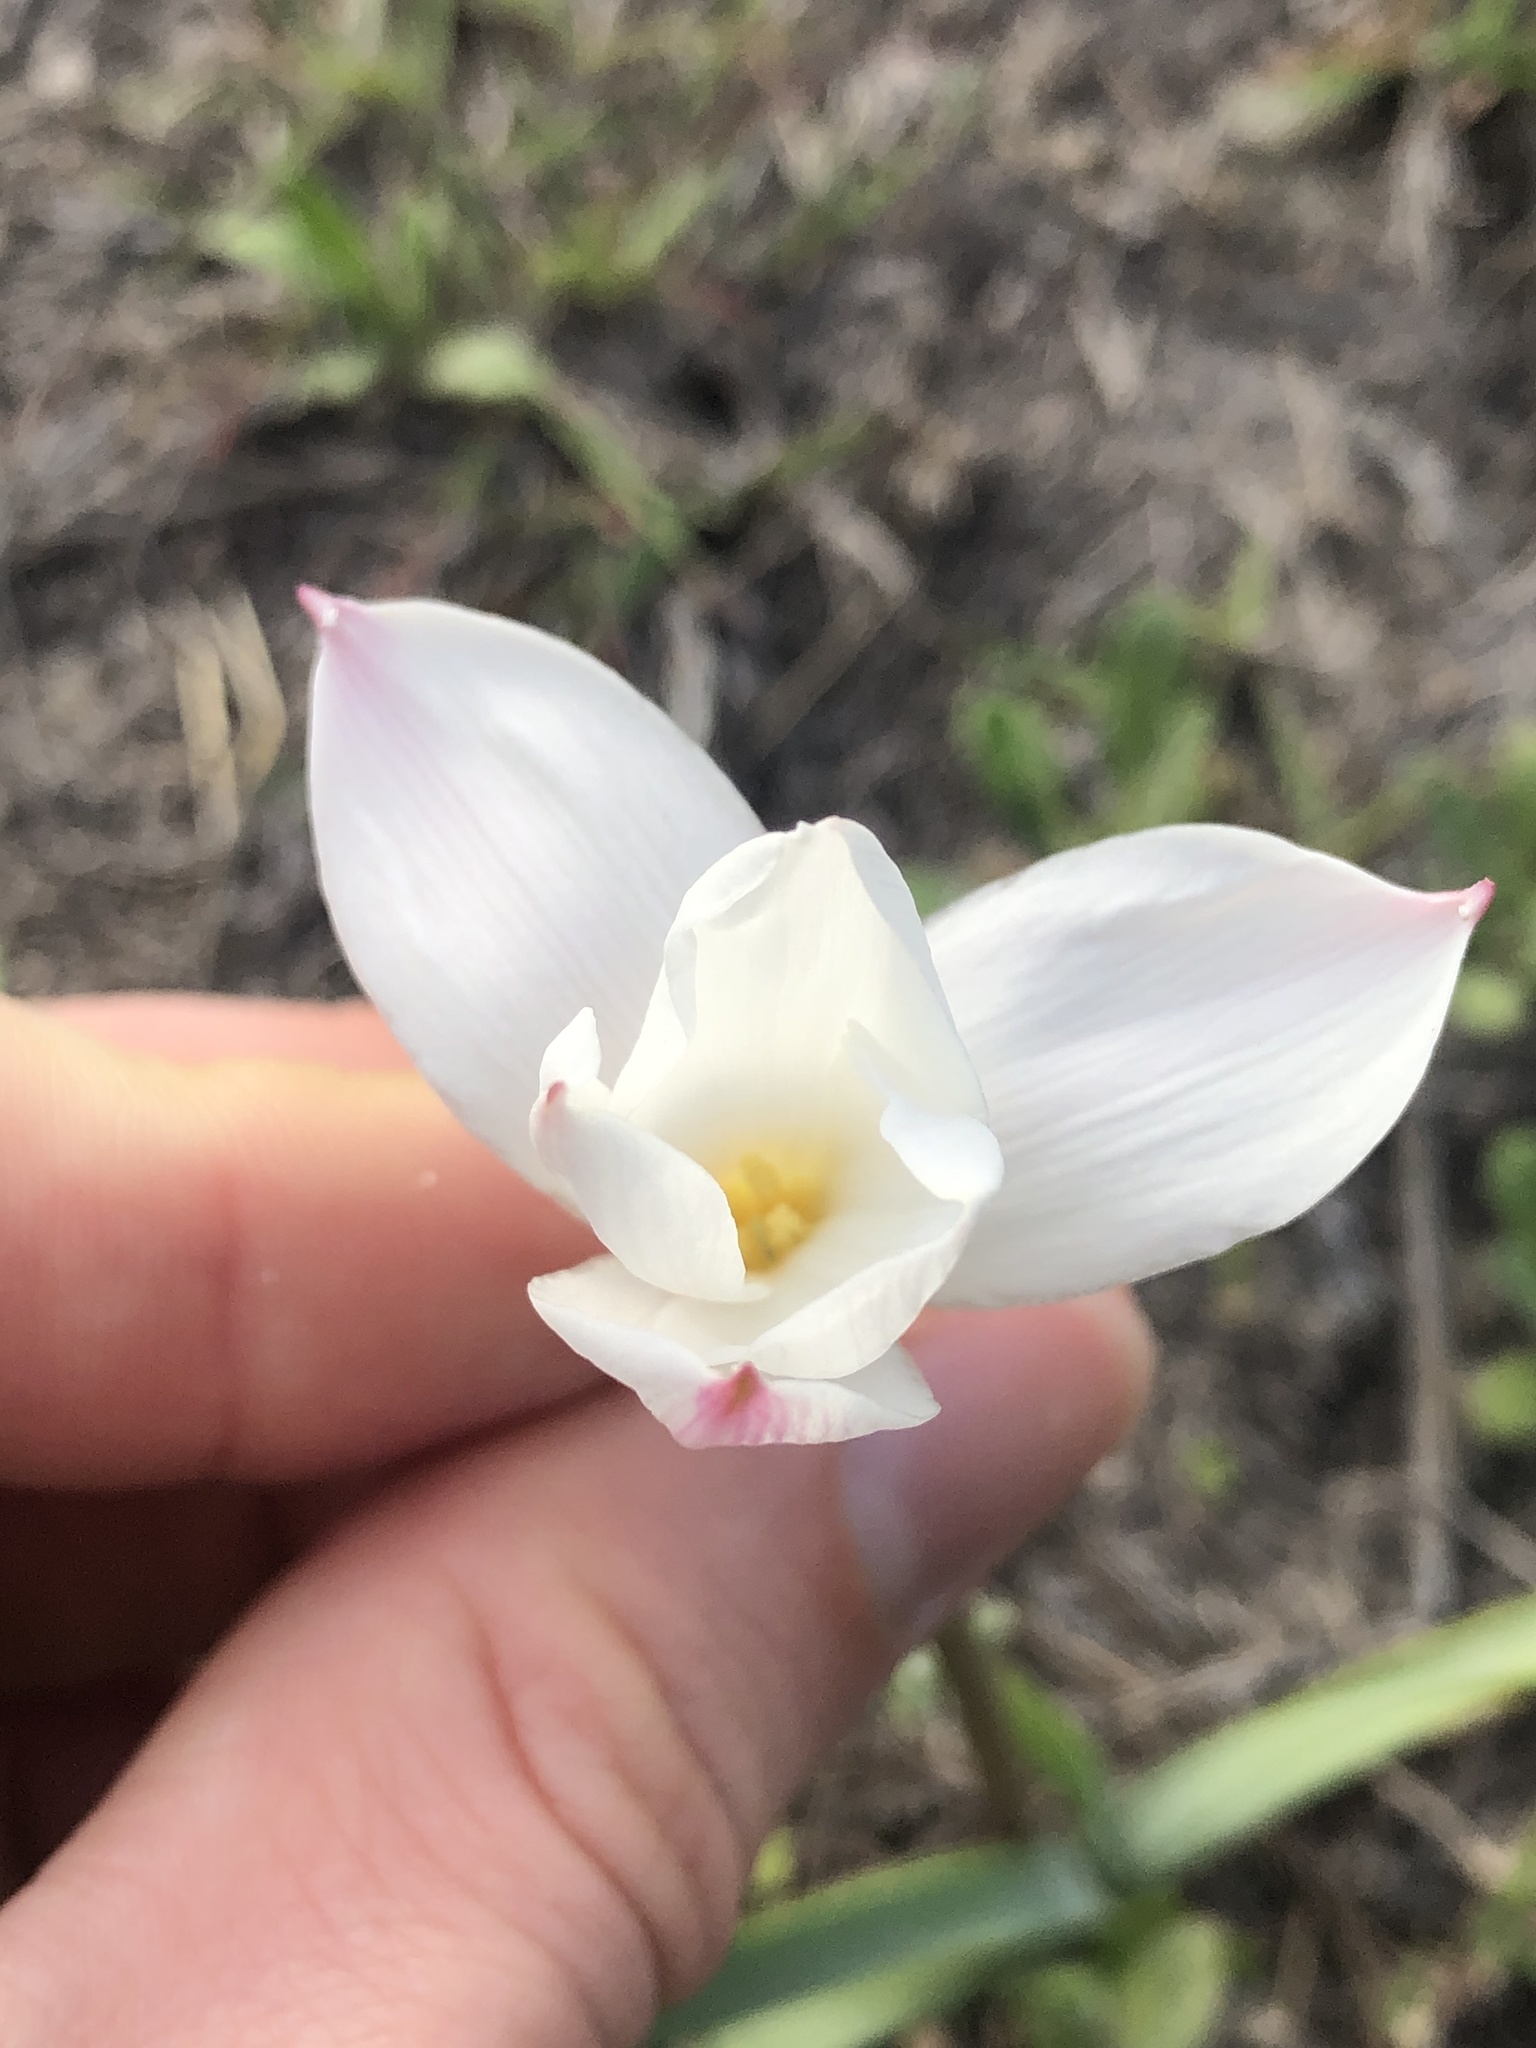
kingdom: Plantae
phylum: Tracheophyta
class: Liliopsida
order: Asparagales
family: Amaryllidaceae
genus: Zephyranthes
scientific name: Zephyranthes drummondii
